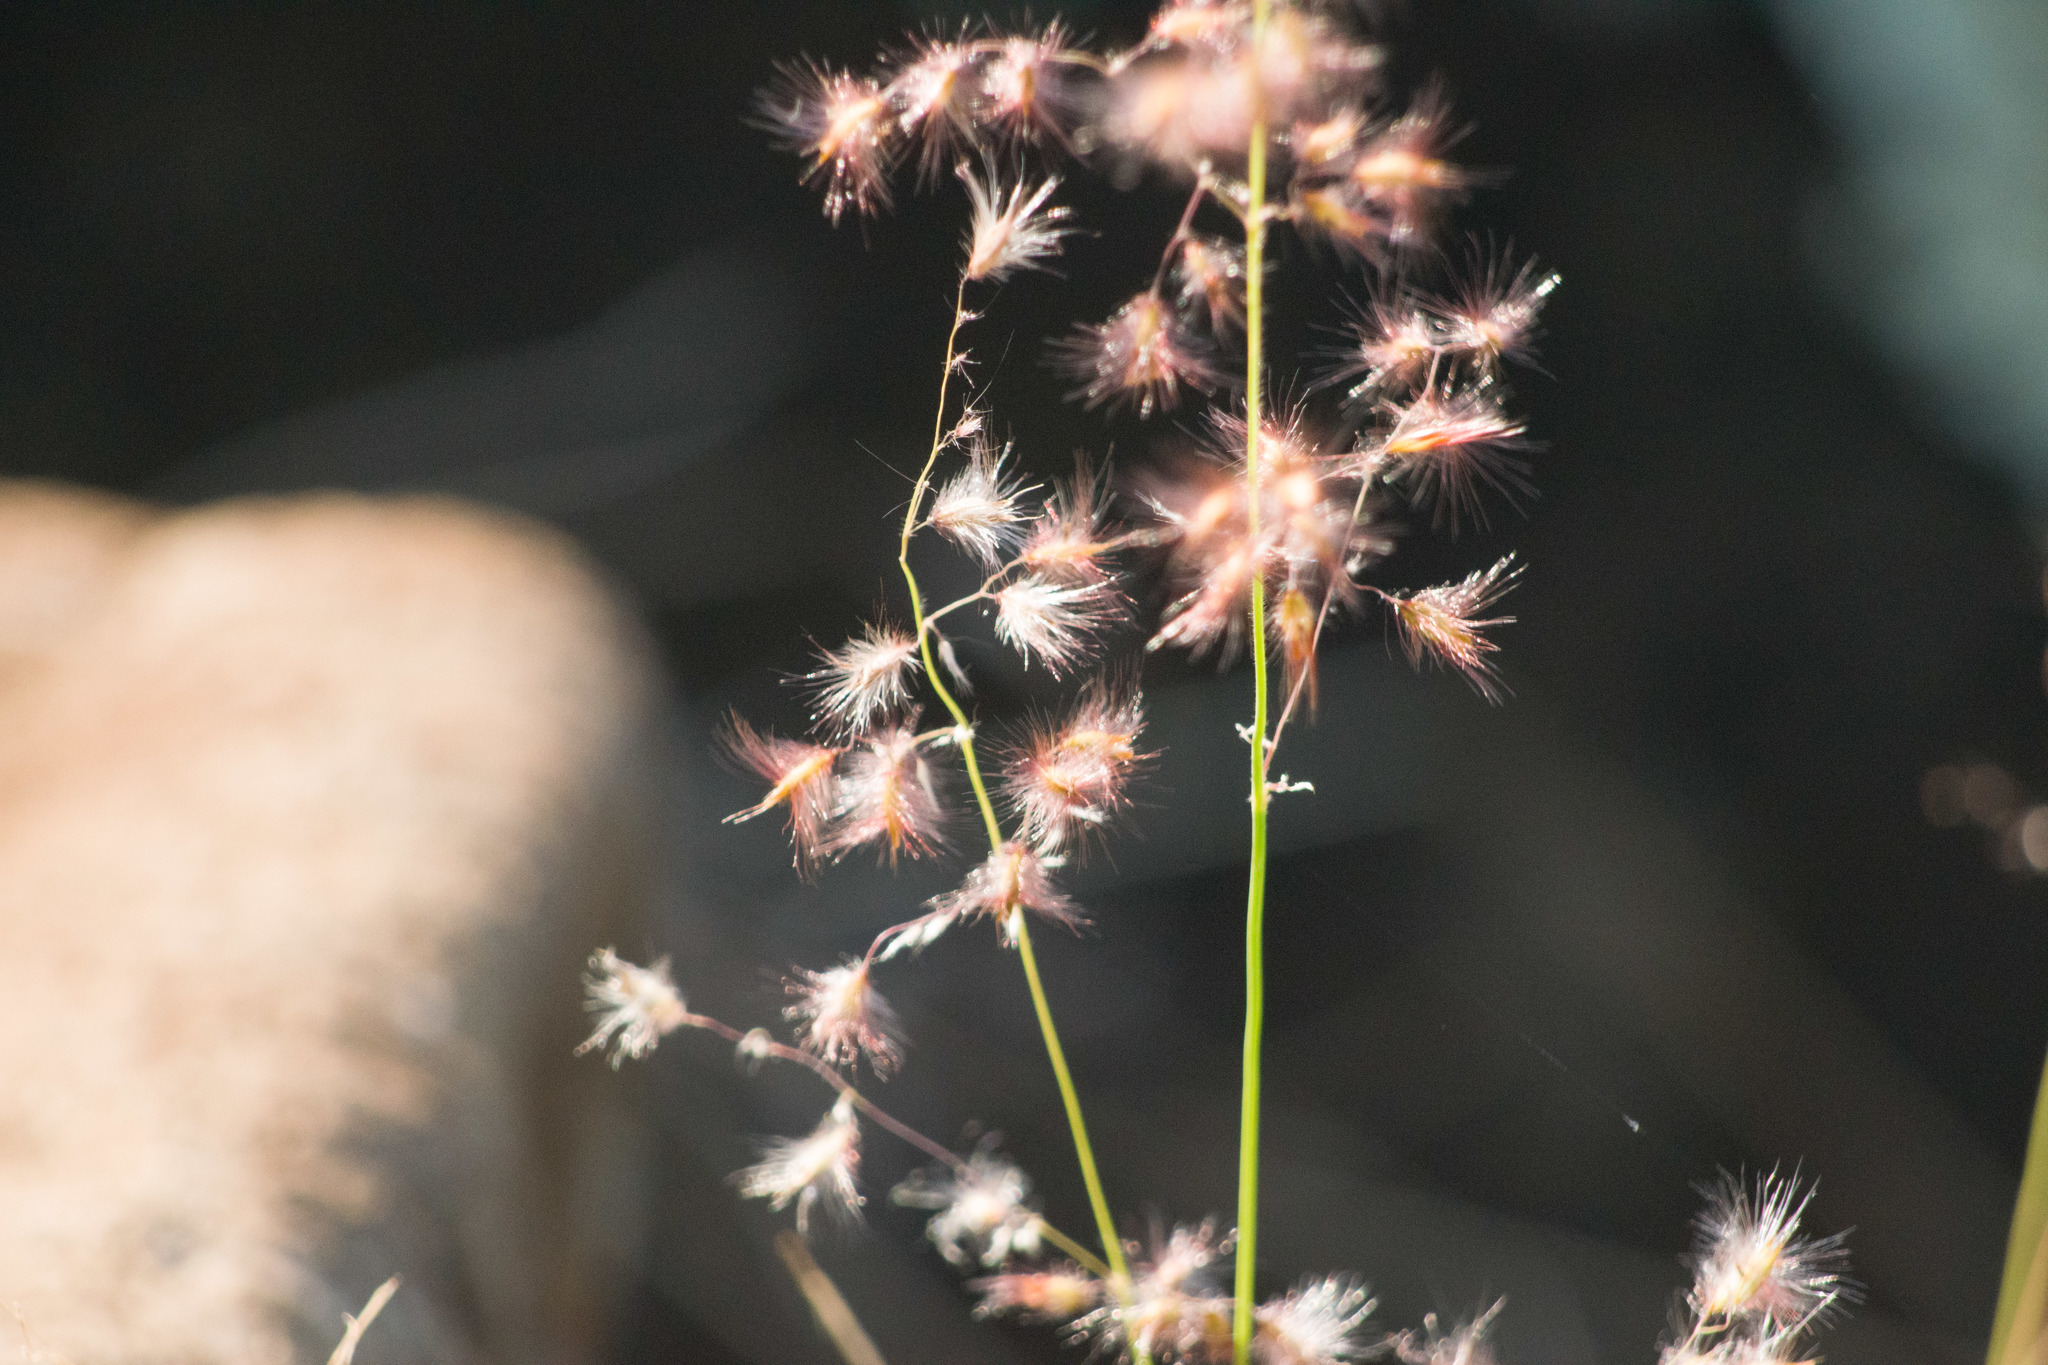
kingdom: Plantae
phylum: Tracheophyta
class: Liliopsida
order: Poales
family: Poaceae
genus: Melinis
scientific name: Melinis repens
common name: Rose natal grass
